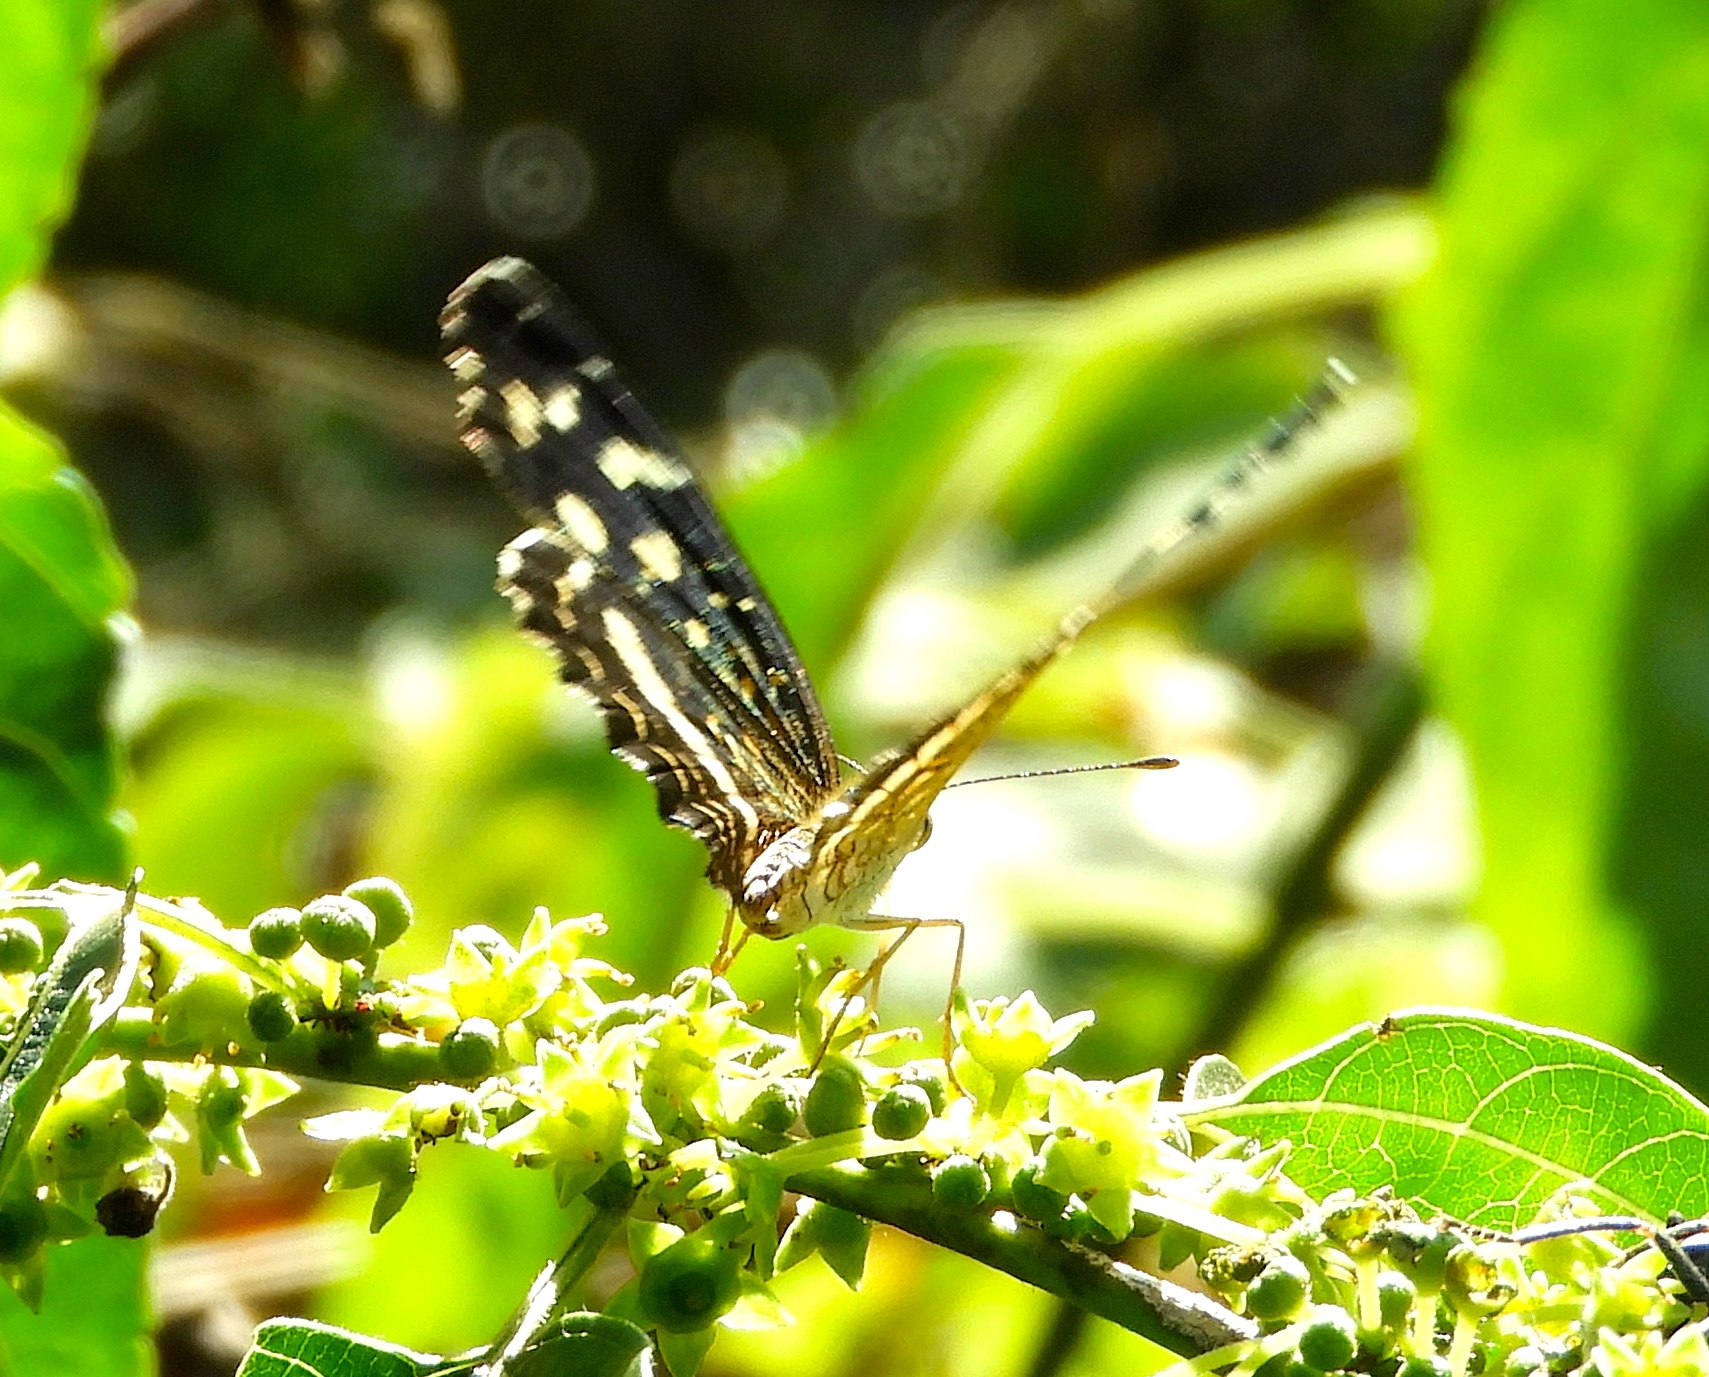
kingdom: Animalia
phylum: Arthropoda
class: Insecta
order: Lepidoptera
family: Nymphalidae
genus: Anthanassa
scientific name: Anthanassa tulcis
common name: Pale-banded crescent
